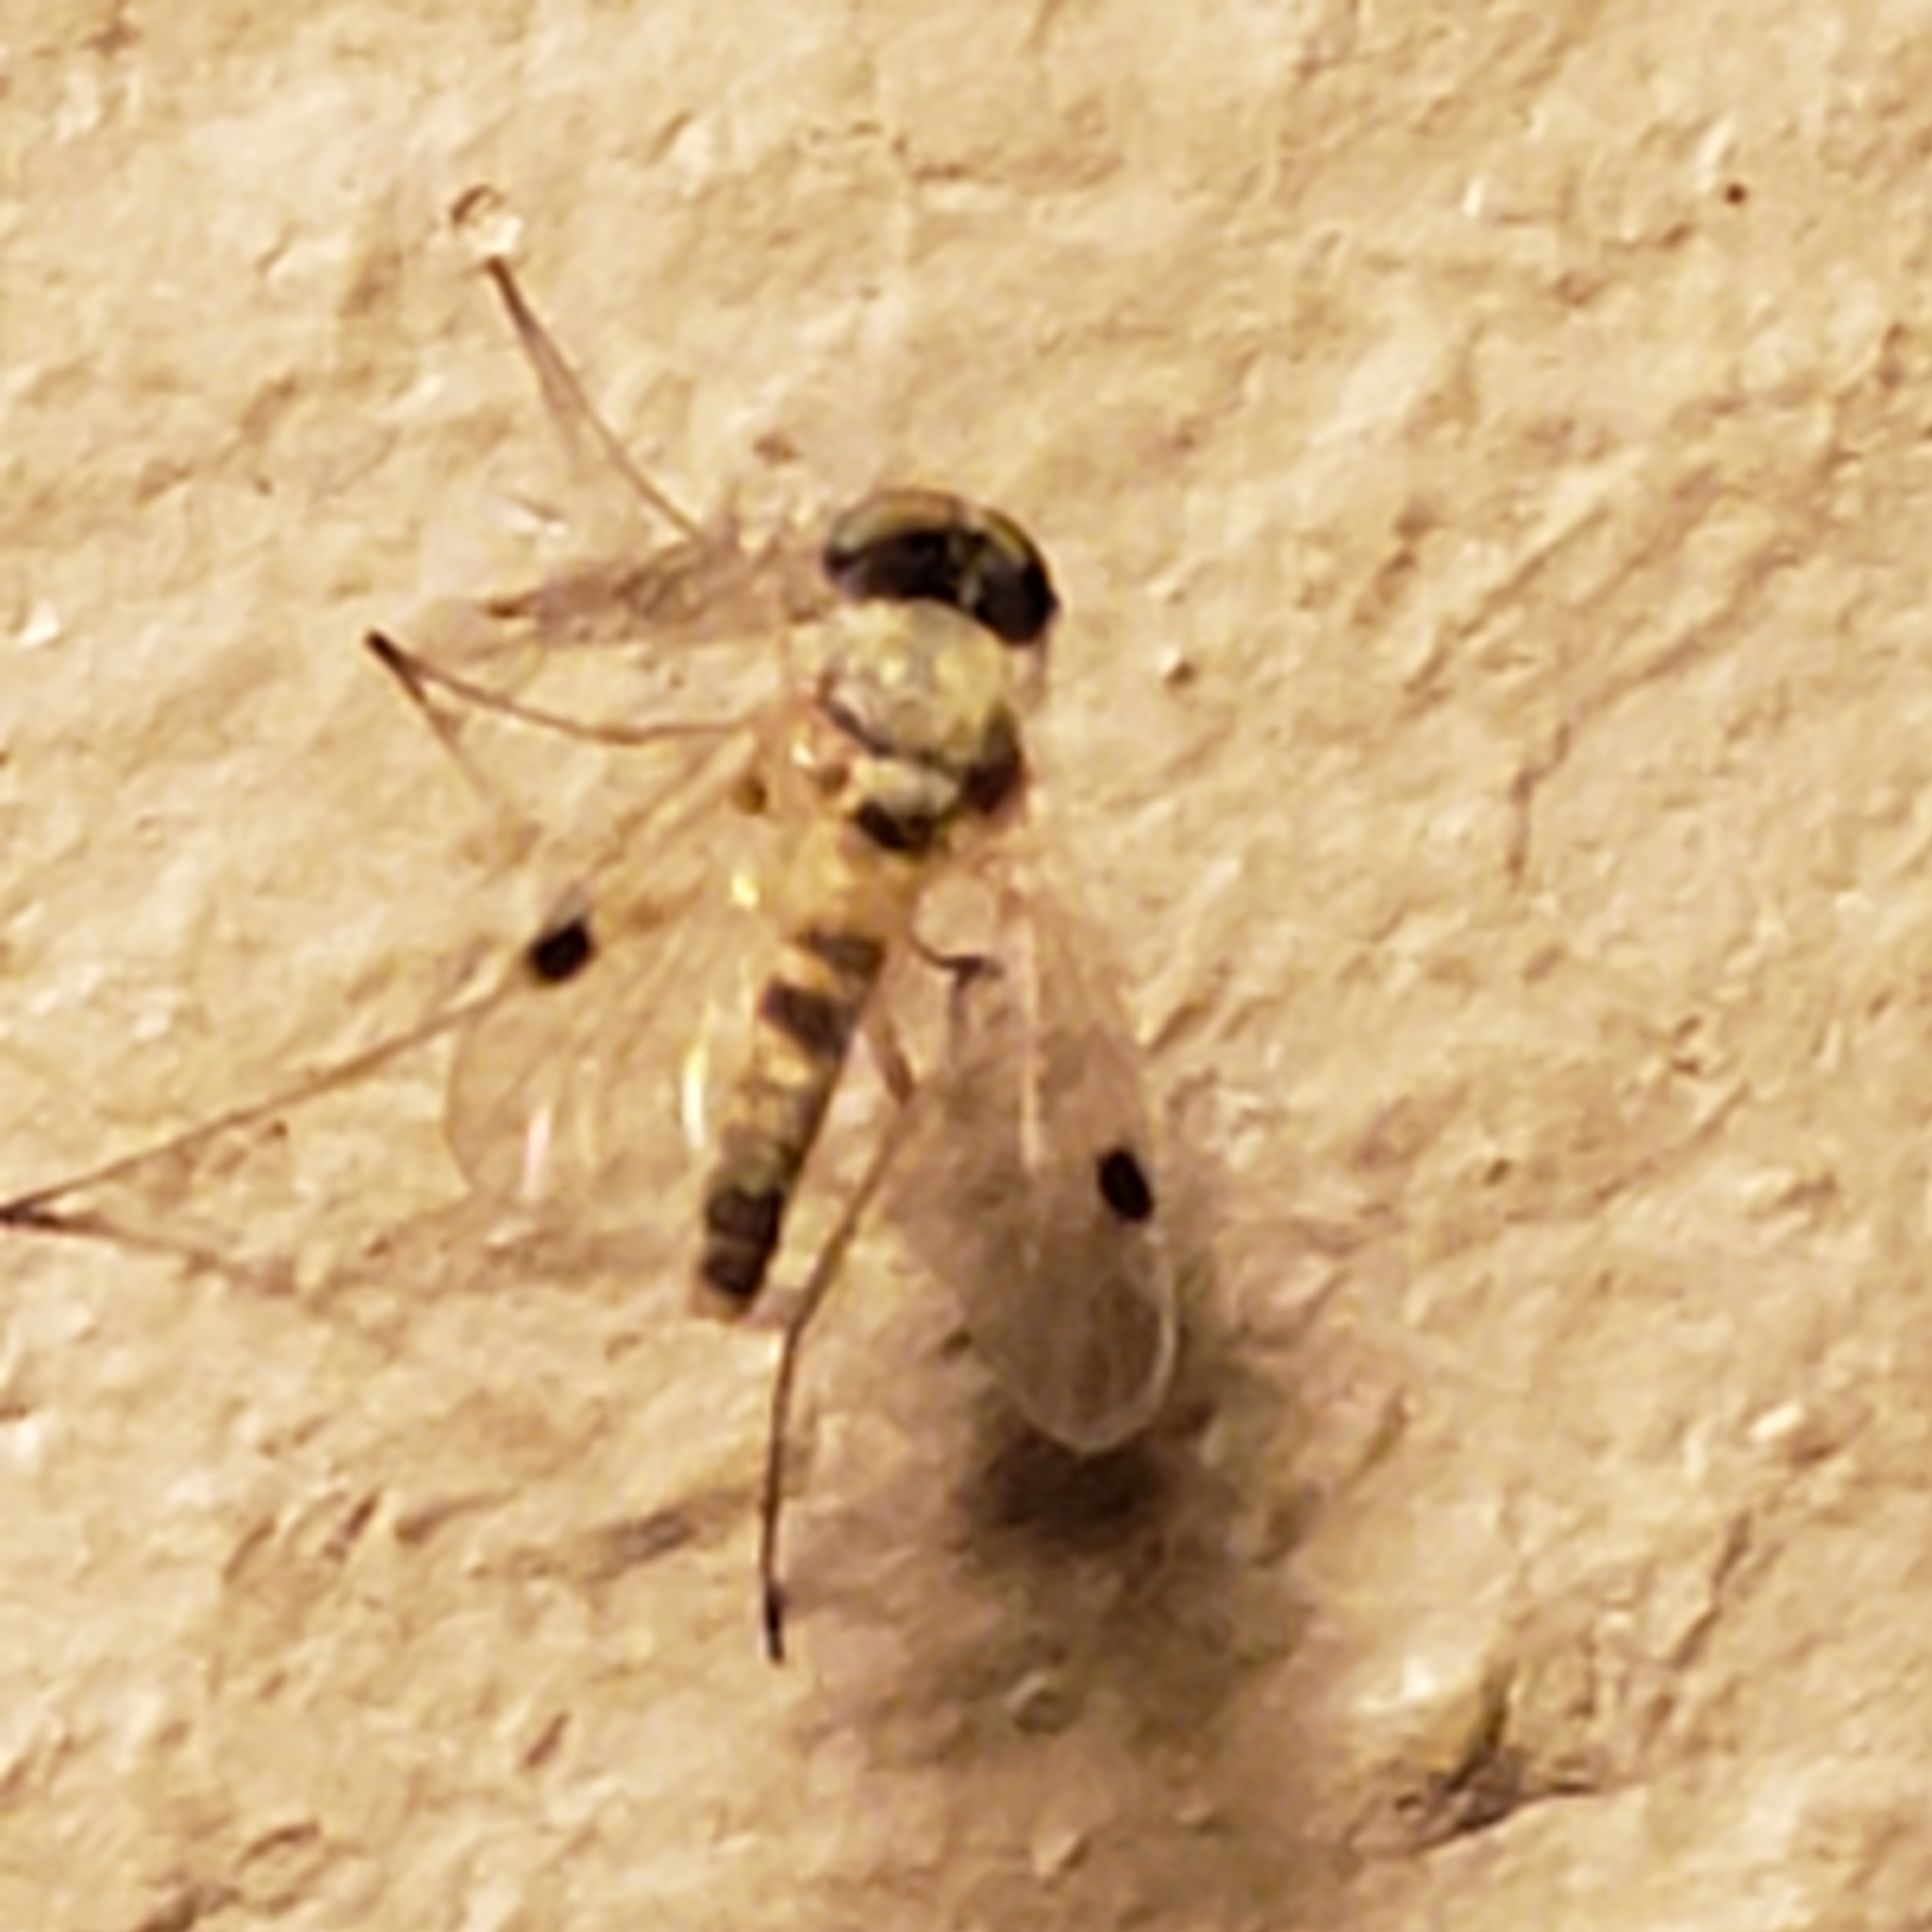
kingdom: Animalia
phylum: Arthropoda
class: Insecta
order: Diptera
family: Rhagionidae
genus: Chrysopilus
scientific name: Chrysopilus modestus
